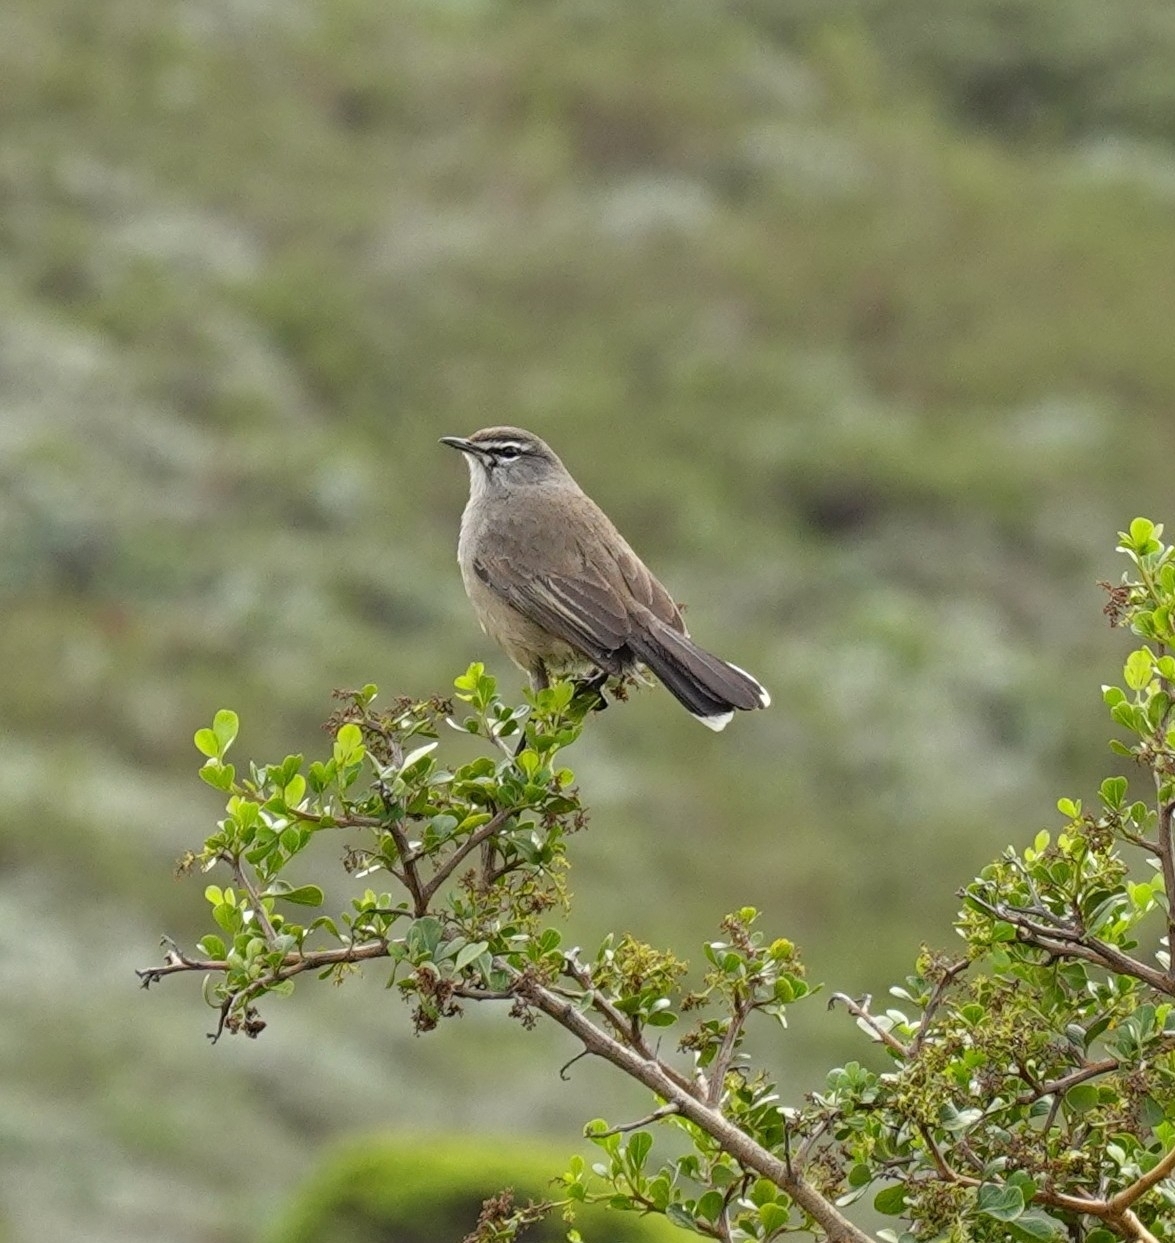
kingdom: Animalia
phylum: Chordata
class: Aves
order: Passeriformes
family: Muscicapidae
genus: Erythropygia
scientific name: Erythropygia coryphoeus
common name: Karoo scrub robin
